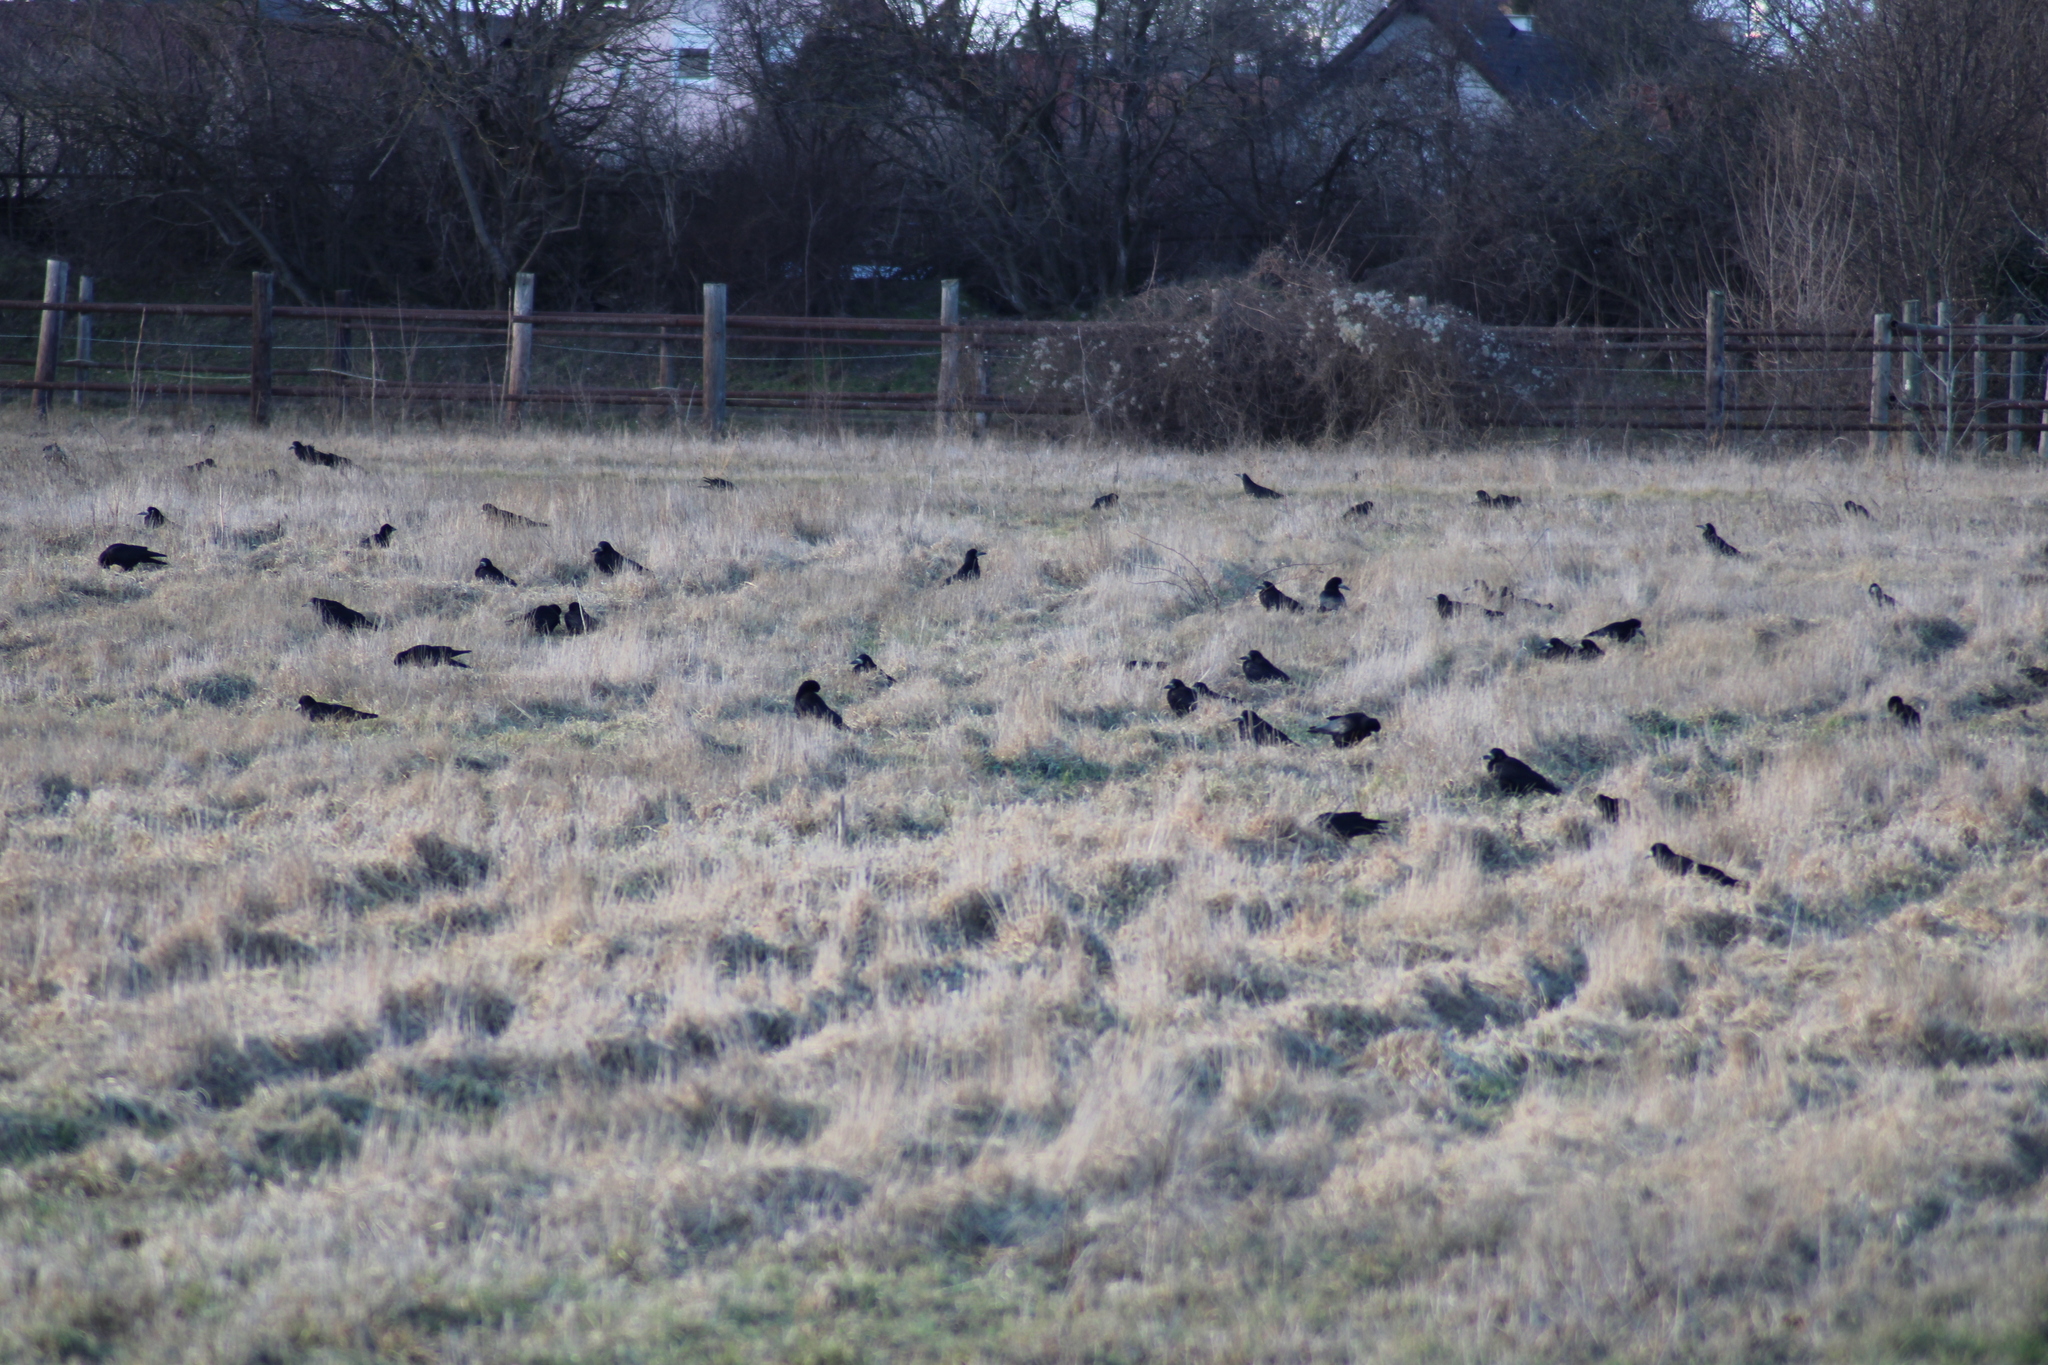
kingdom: Animalia
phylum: Chordata
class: Aves
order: Passeriformes
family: Corvidae
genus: Corvus
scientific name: Corvus frugilegus
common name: Rook
